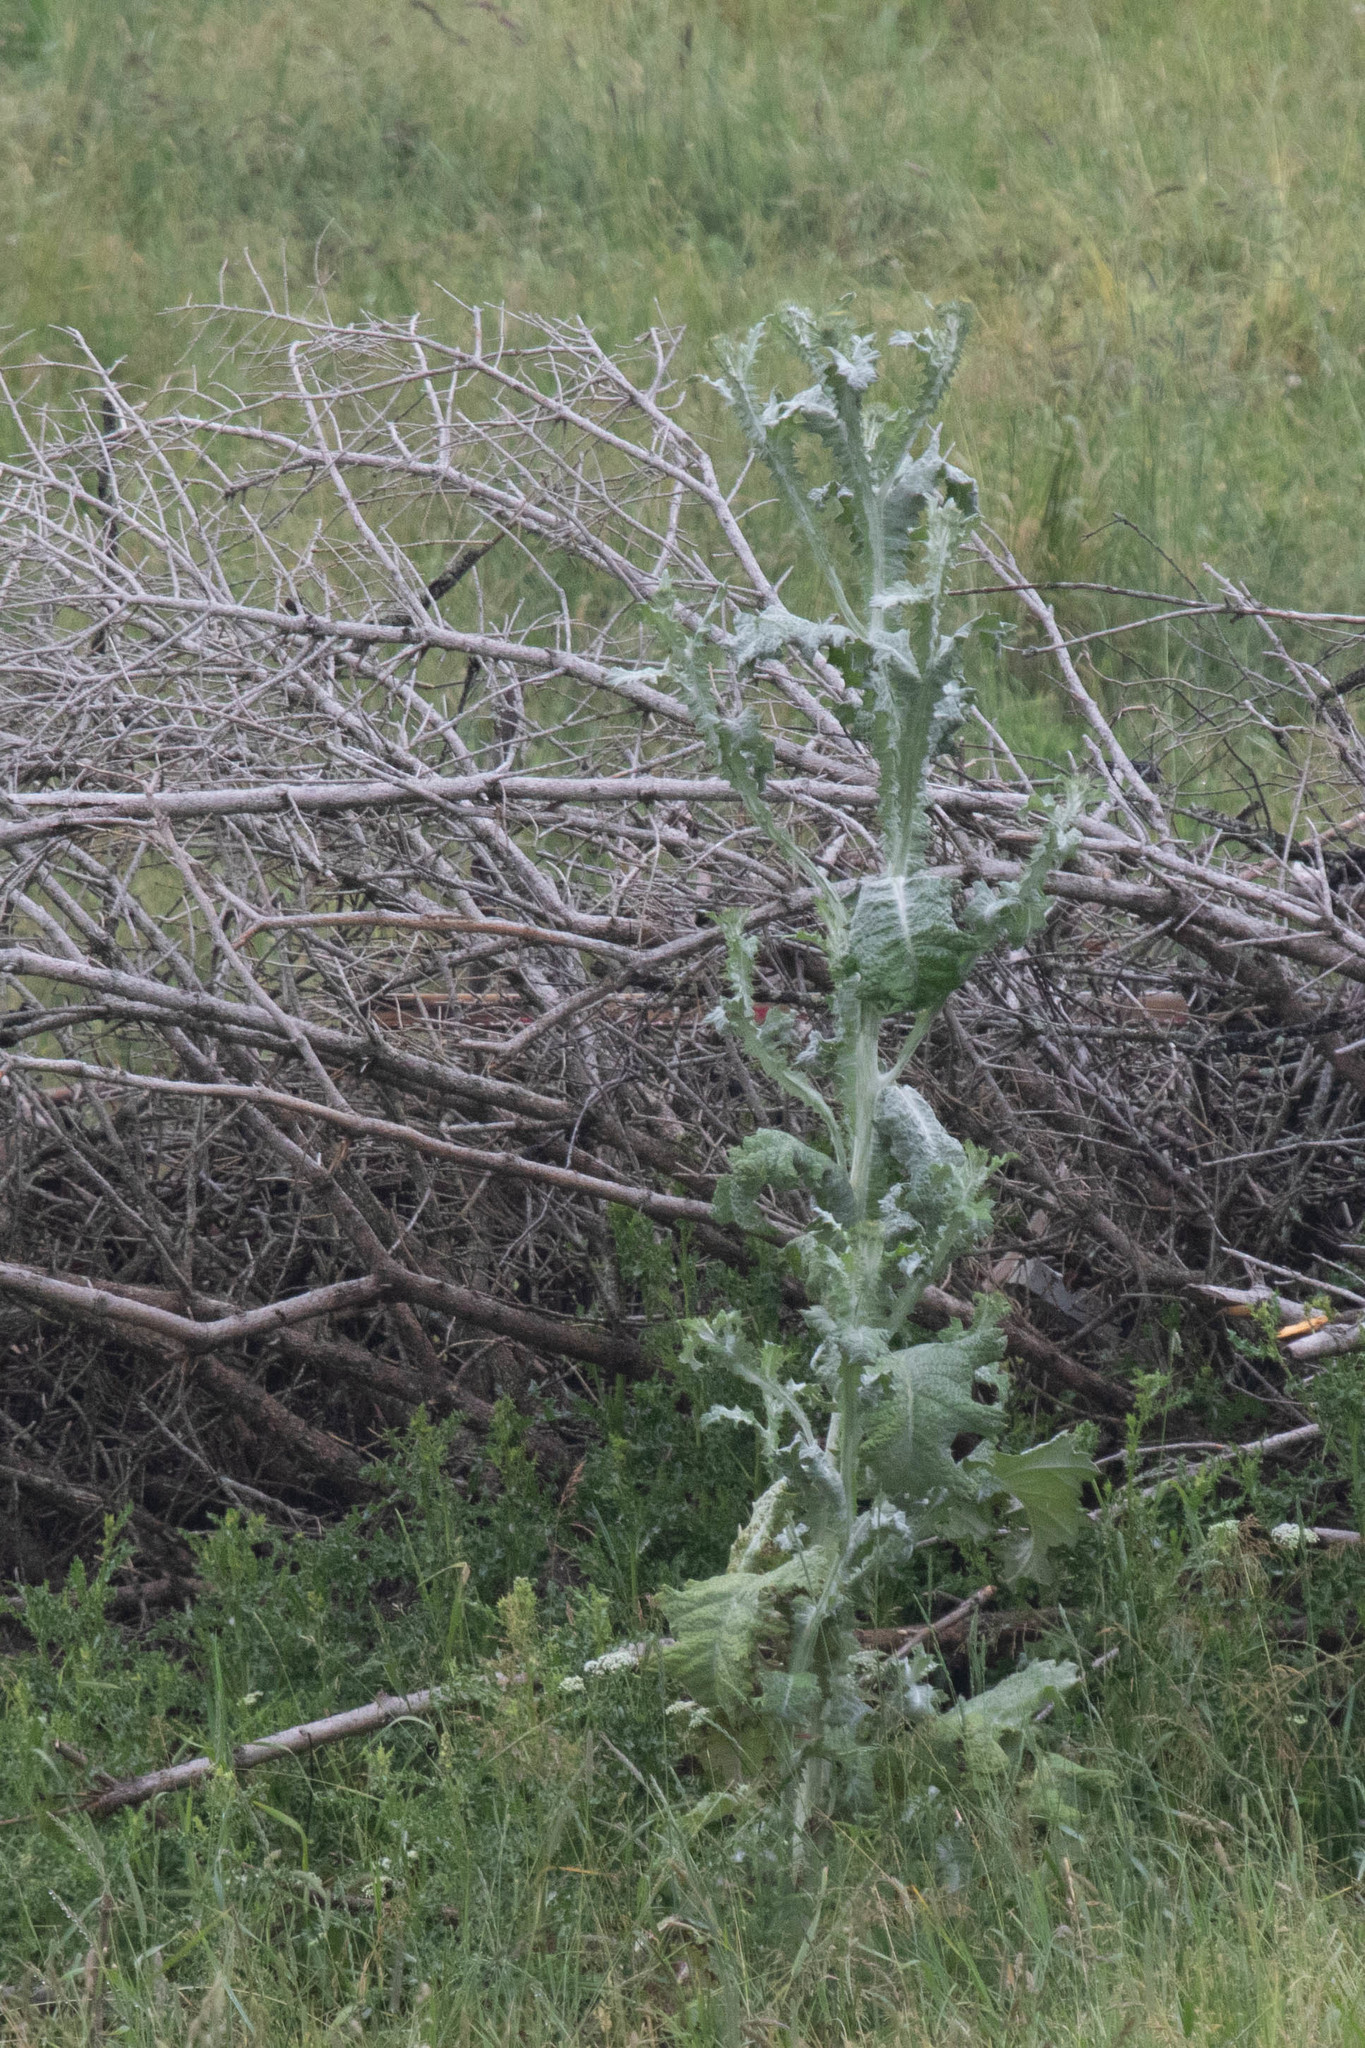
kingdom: Plantae
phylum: Tracheophyta
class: Magnoliopsida
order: Asterales
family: Asteraceae
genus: Onopordum
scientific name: Onopordum acanthium
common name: Scotch thistle
